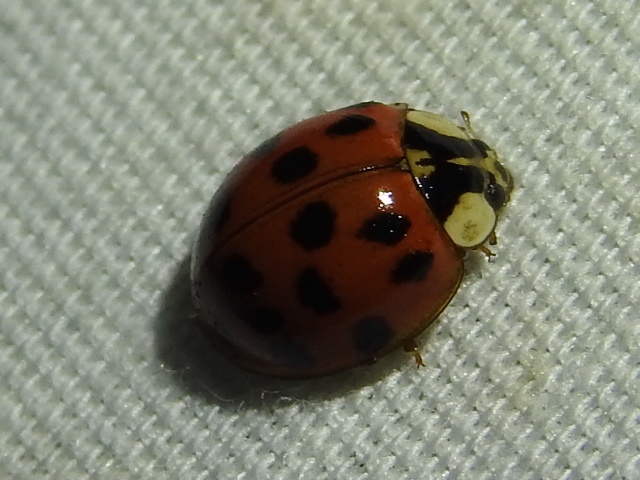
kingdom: Animalia
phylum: Arthropoda
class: Insecta
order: Coleoptera
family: Coccinellidae
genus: Harmonia
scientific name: Harmonia axyridis
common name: Harlequin ladybird
